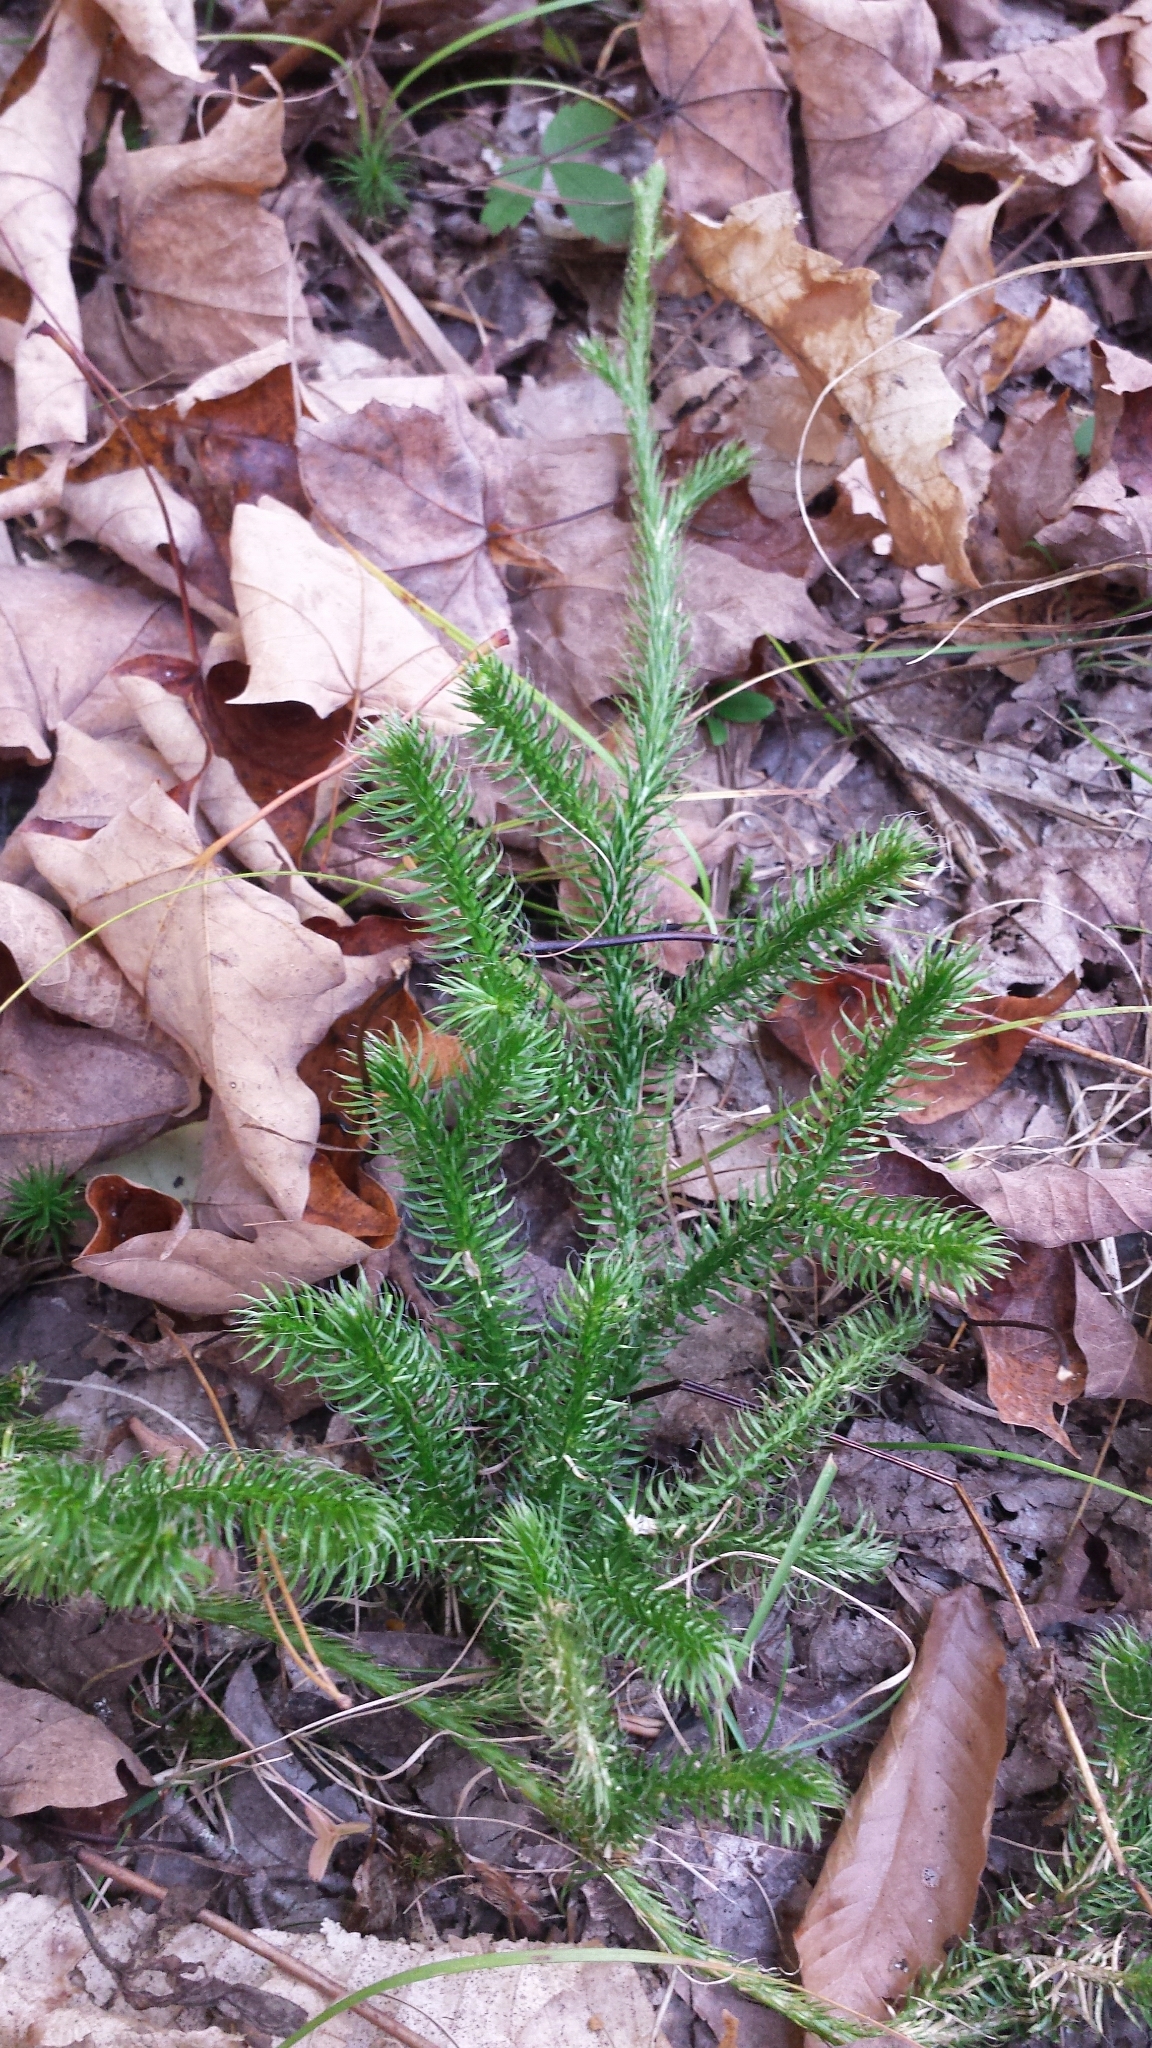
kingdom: Plantae
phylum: Tracheophyta
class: Lycopodiopsida
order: Lycopodiales
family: Lycopodiaceae
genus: Lycopodium
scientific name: Lycopodium clavatum
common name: Stag's-horn clubmoss
